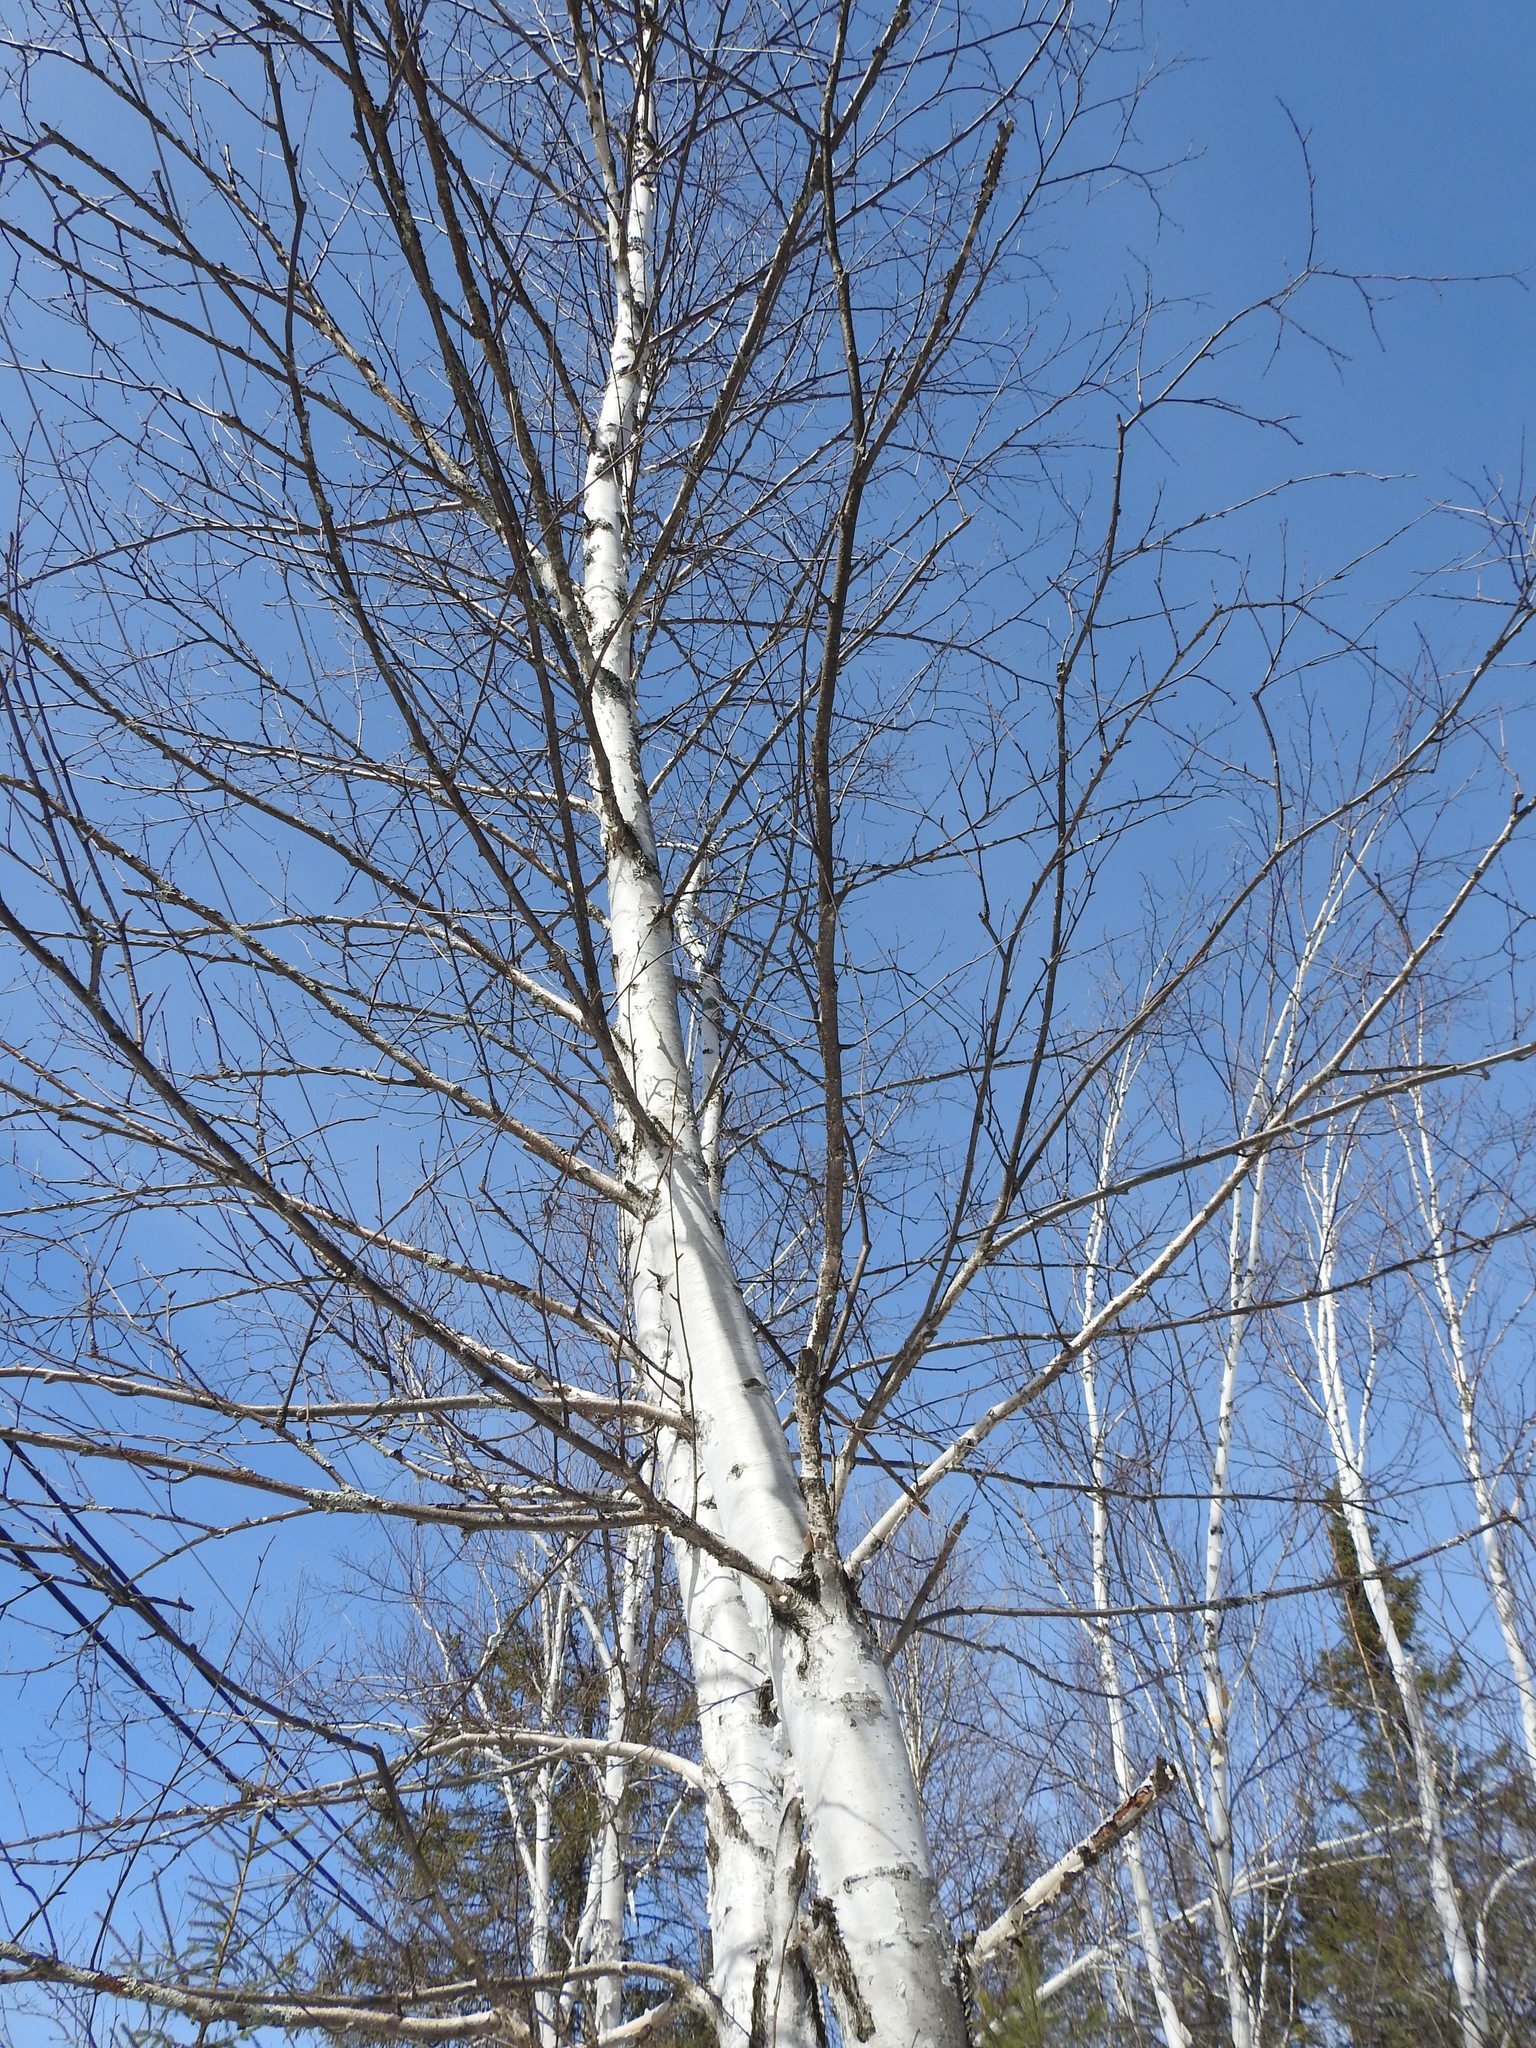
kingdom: Plantae
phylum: Tracheophyta
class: Magnoliopsida
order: Fagales
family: Betulaceae
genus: Betula
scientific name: Betula papyrifera
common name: Paper birch
